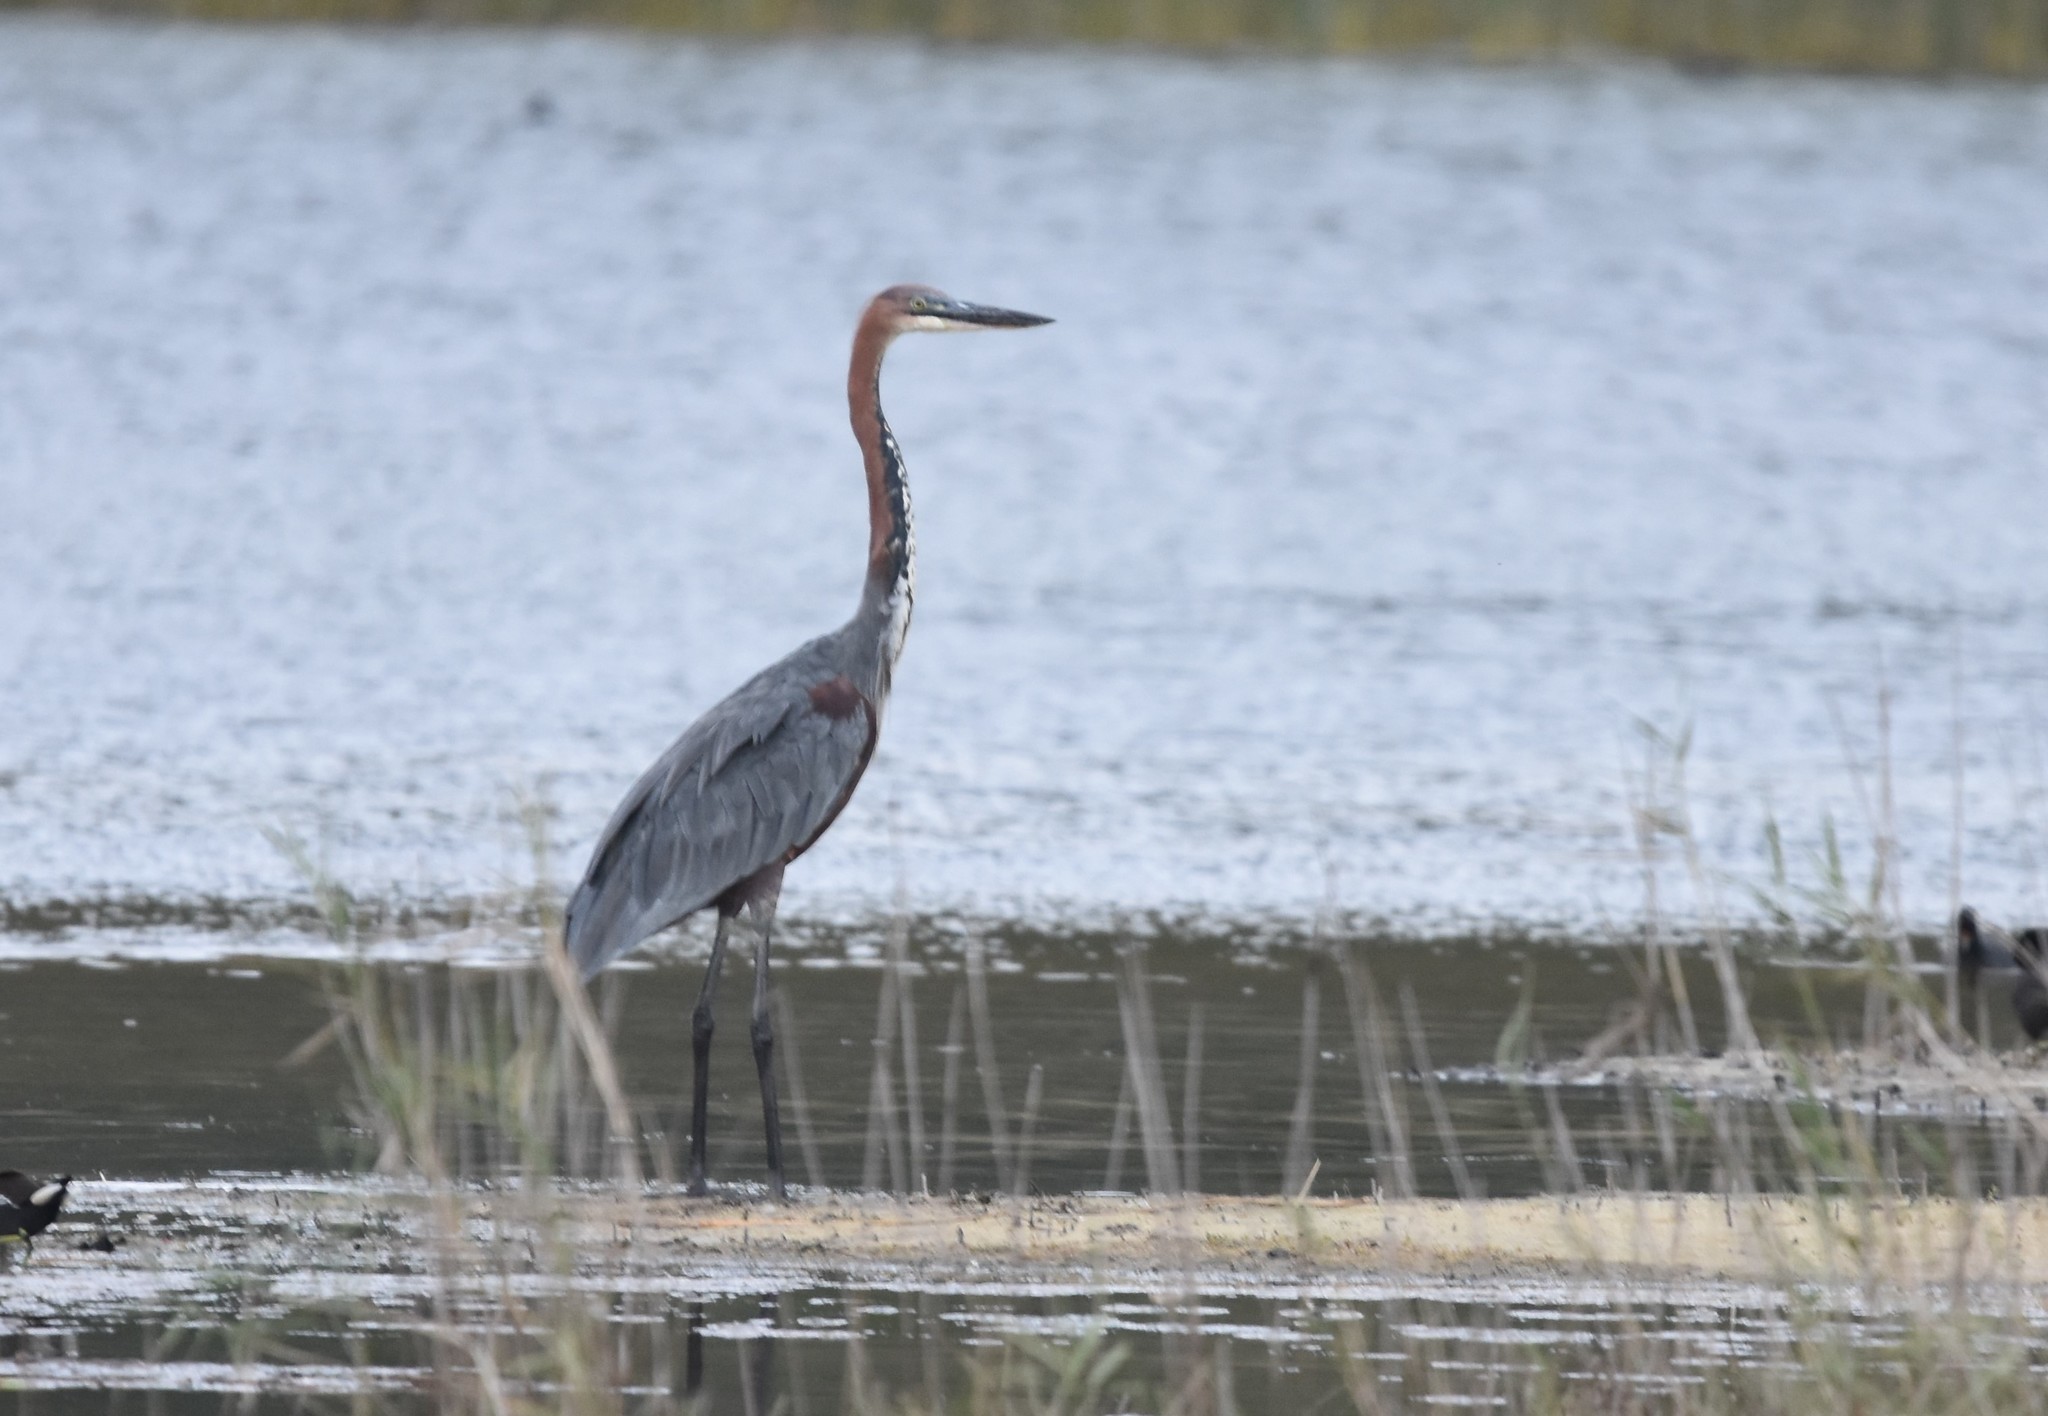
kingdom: Animalia
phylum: Chordata
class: Aves
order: Pelecaniformes
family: Ardeidae
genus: Ardea
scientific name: Ardea goliath
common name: Goliath heron
